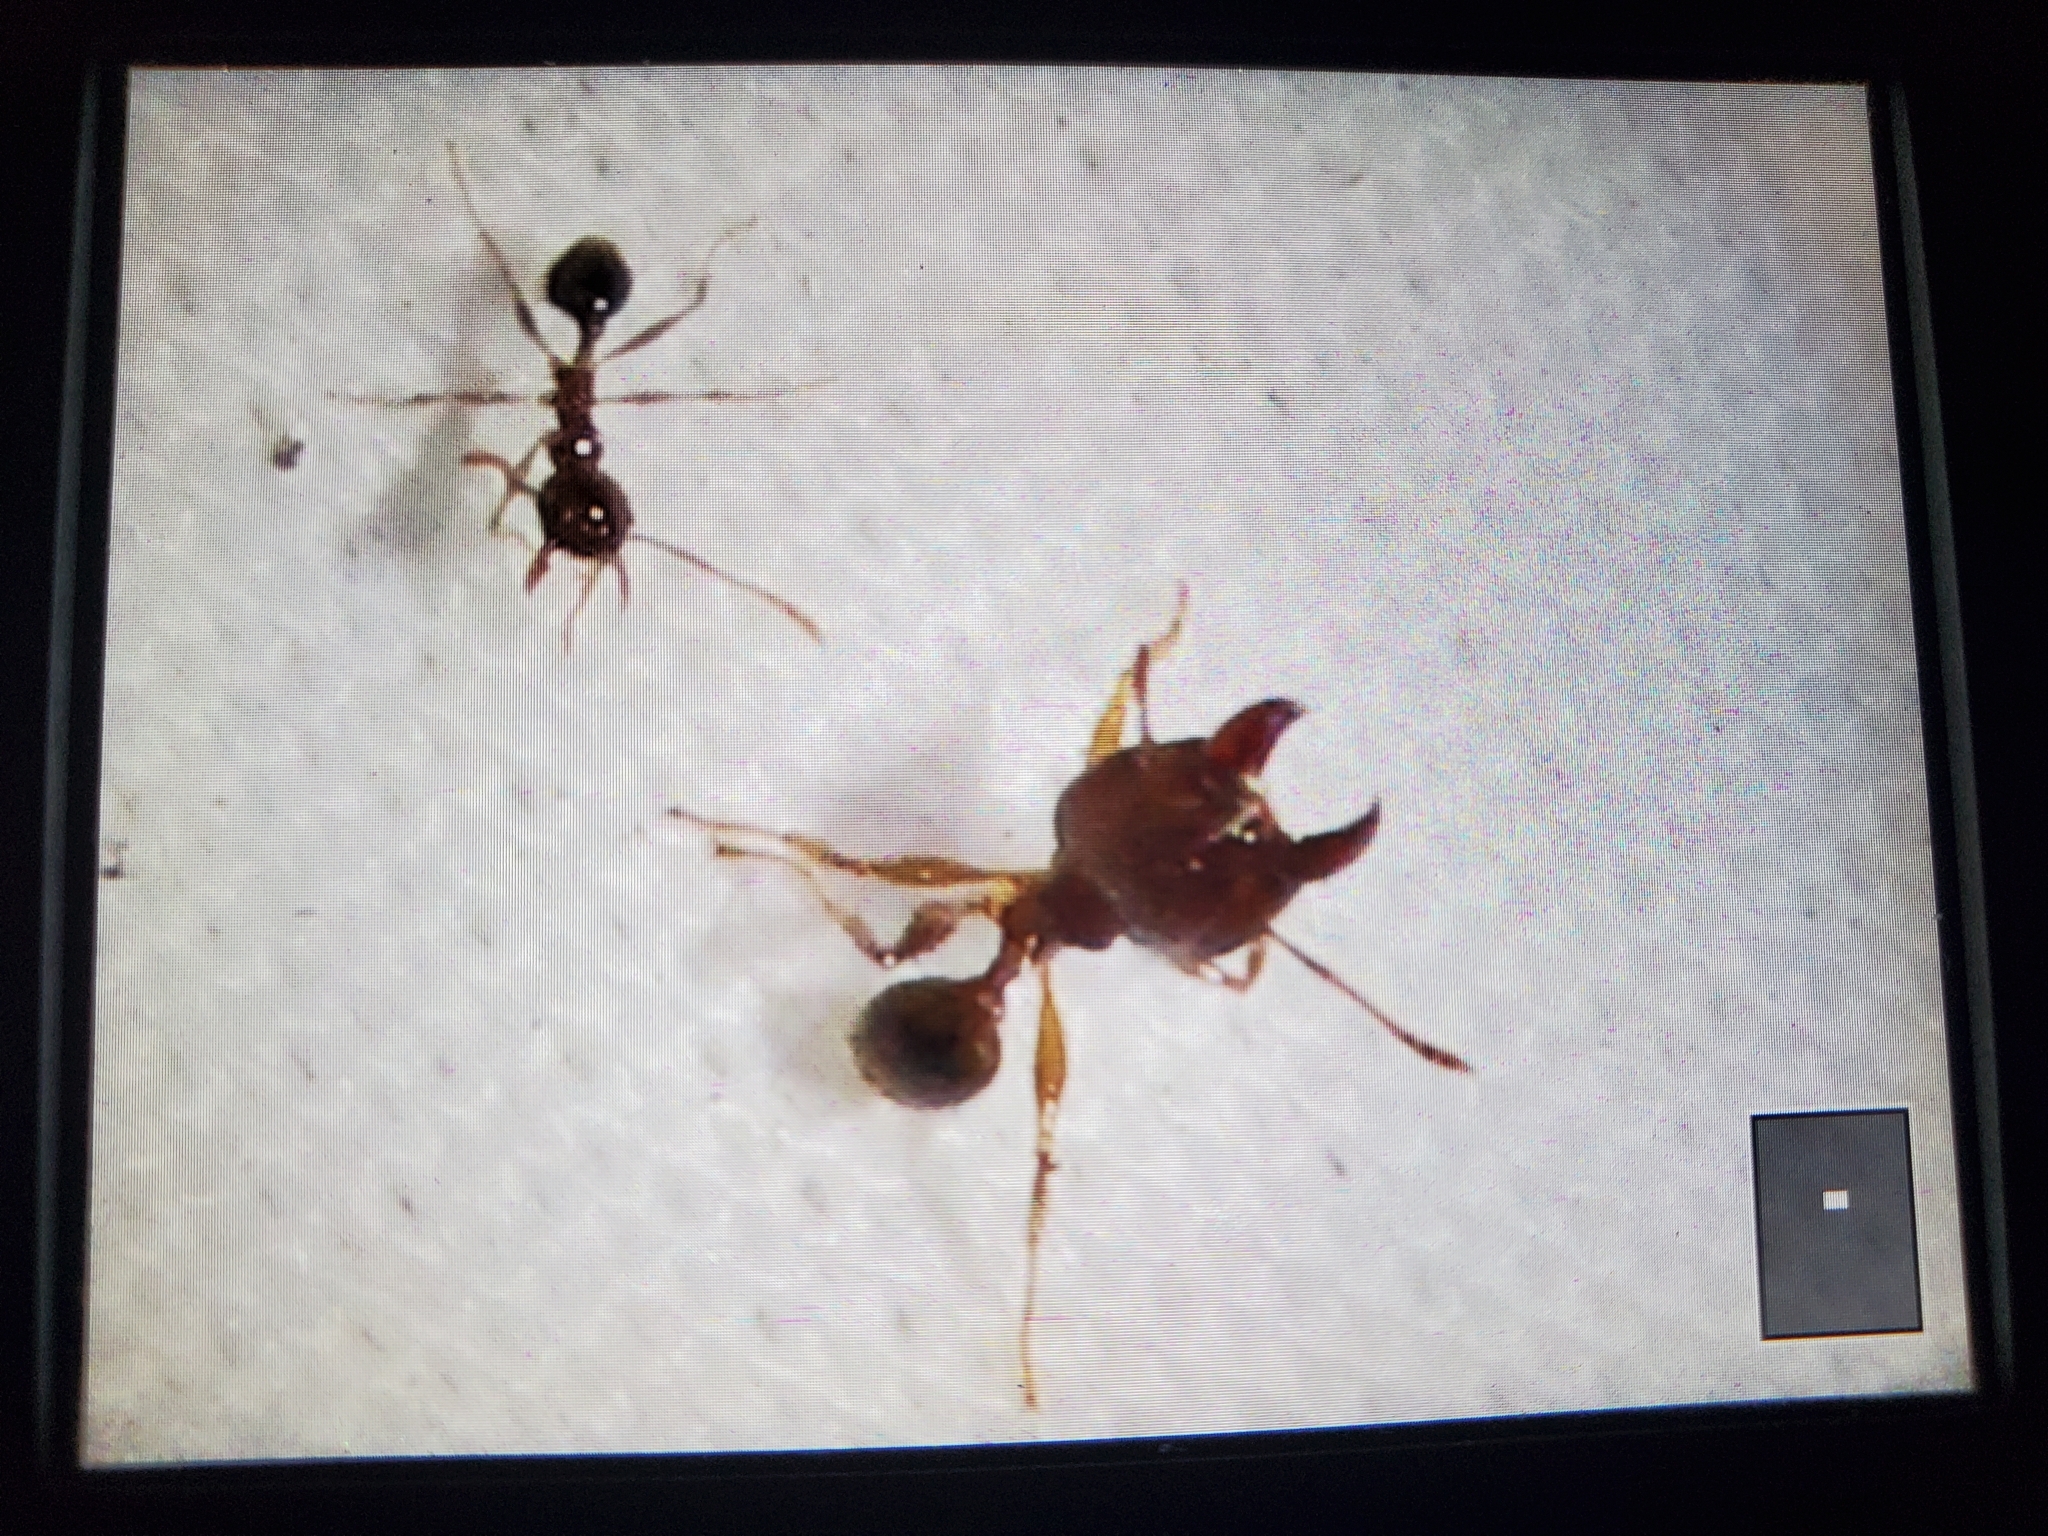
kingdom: Animalia
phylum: Arthropoda
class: Insecta
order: Hymenoptera
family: Formicidae
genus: Pheidole
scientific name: Pheidole megacephala
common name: Bigheaded ant
